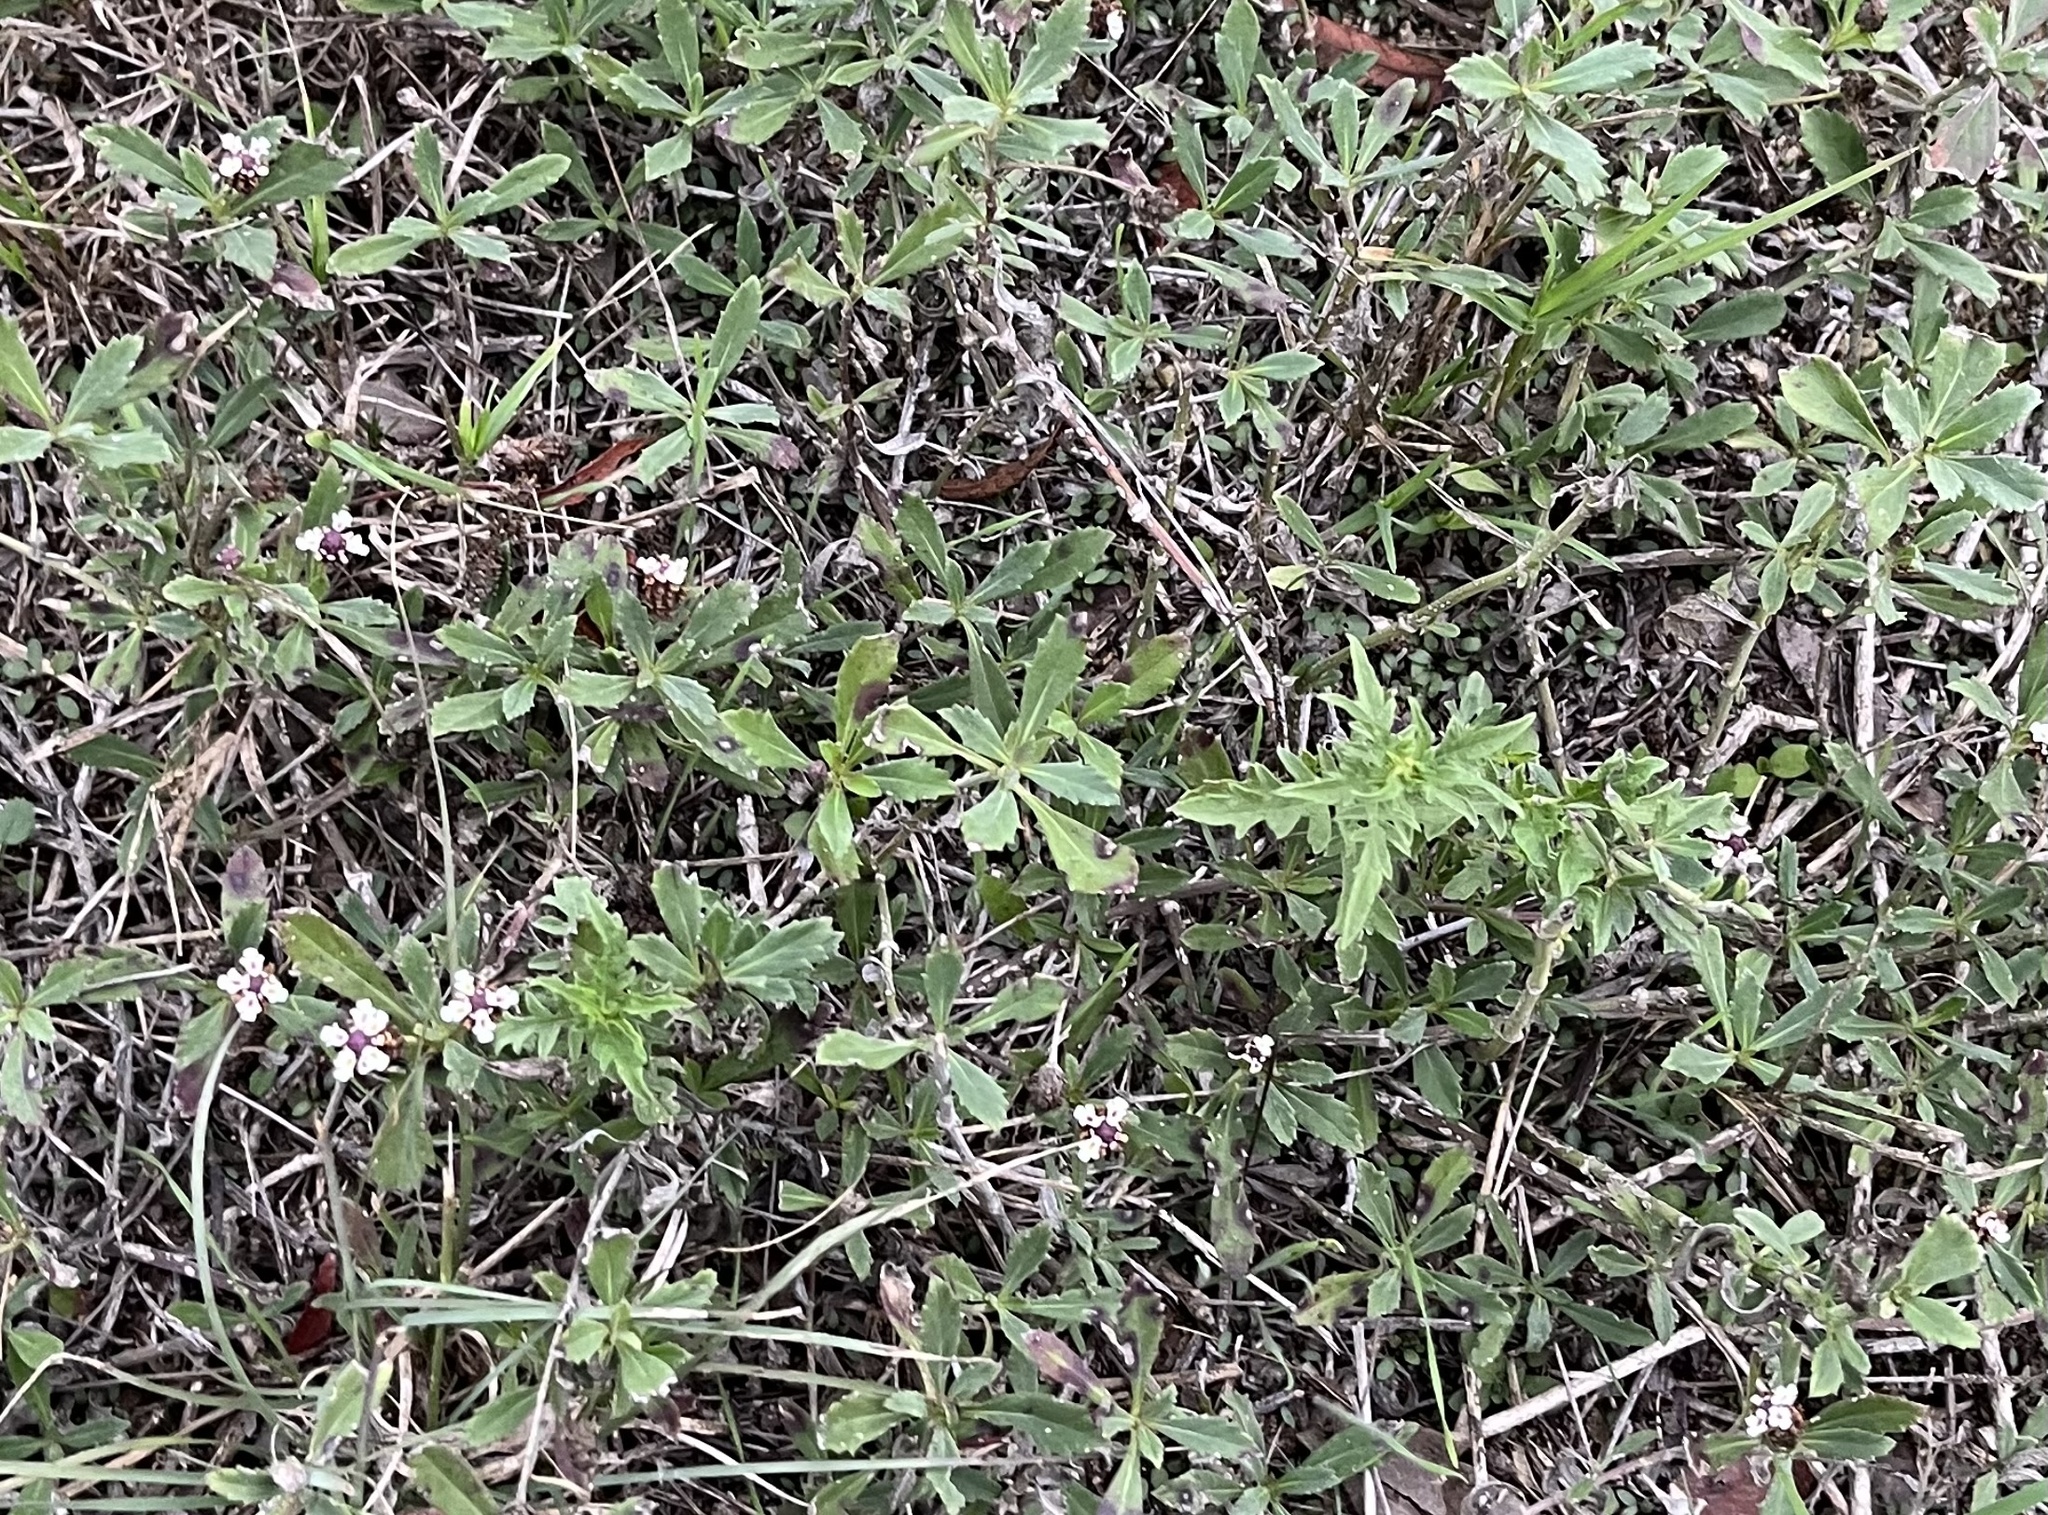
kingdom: Plantae
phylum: Tracheophyta
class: Magnoliopsida
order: Lamiales
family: Verbenaceae
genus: Phyla
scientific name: Phyla nodiflora
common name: Frogfruit
